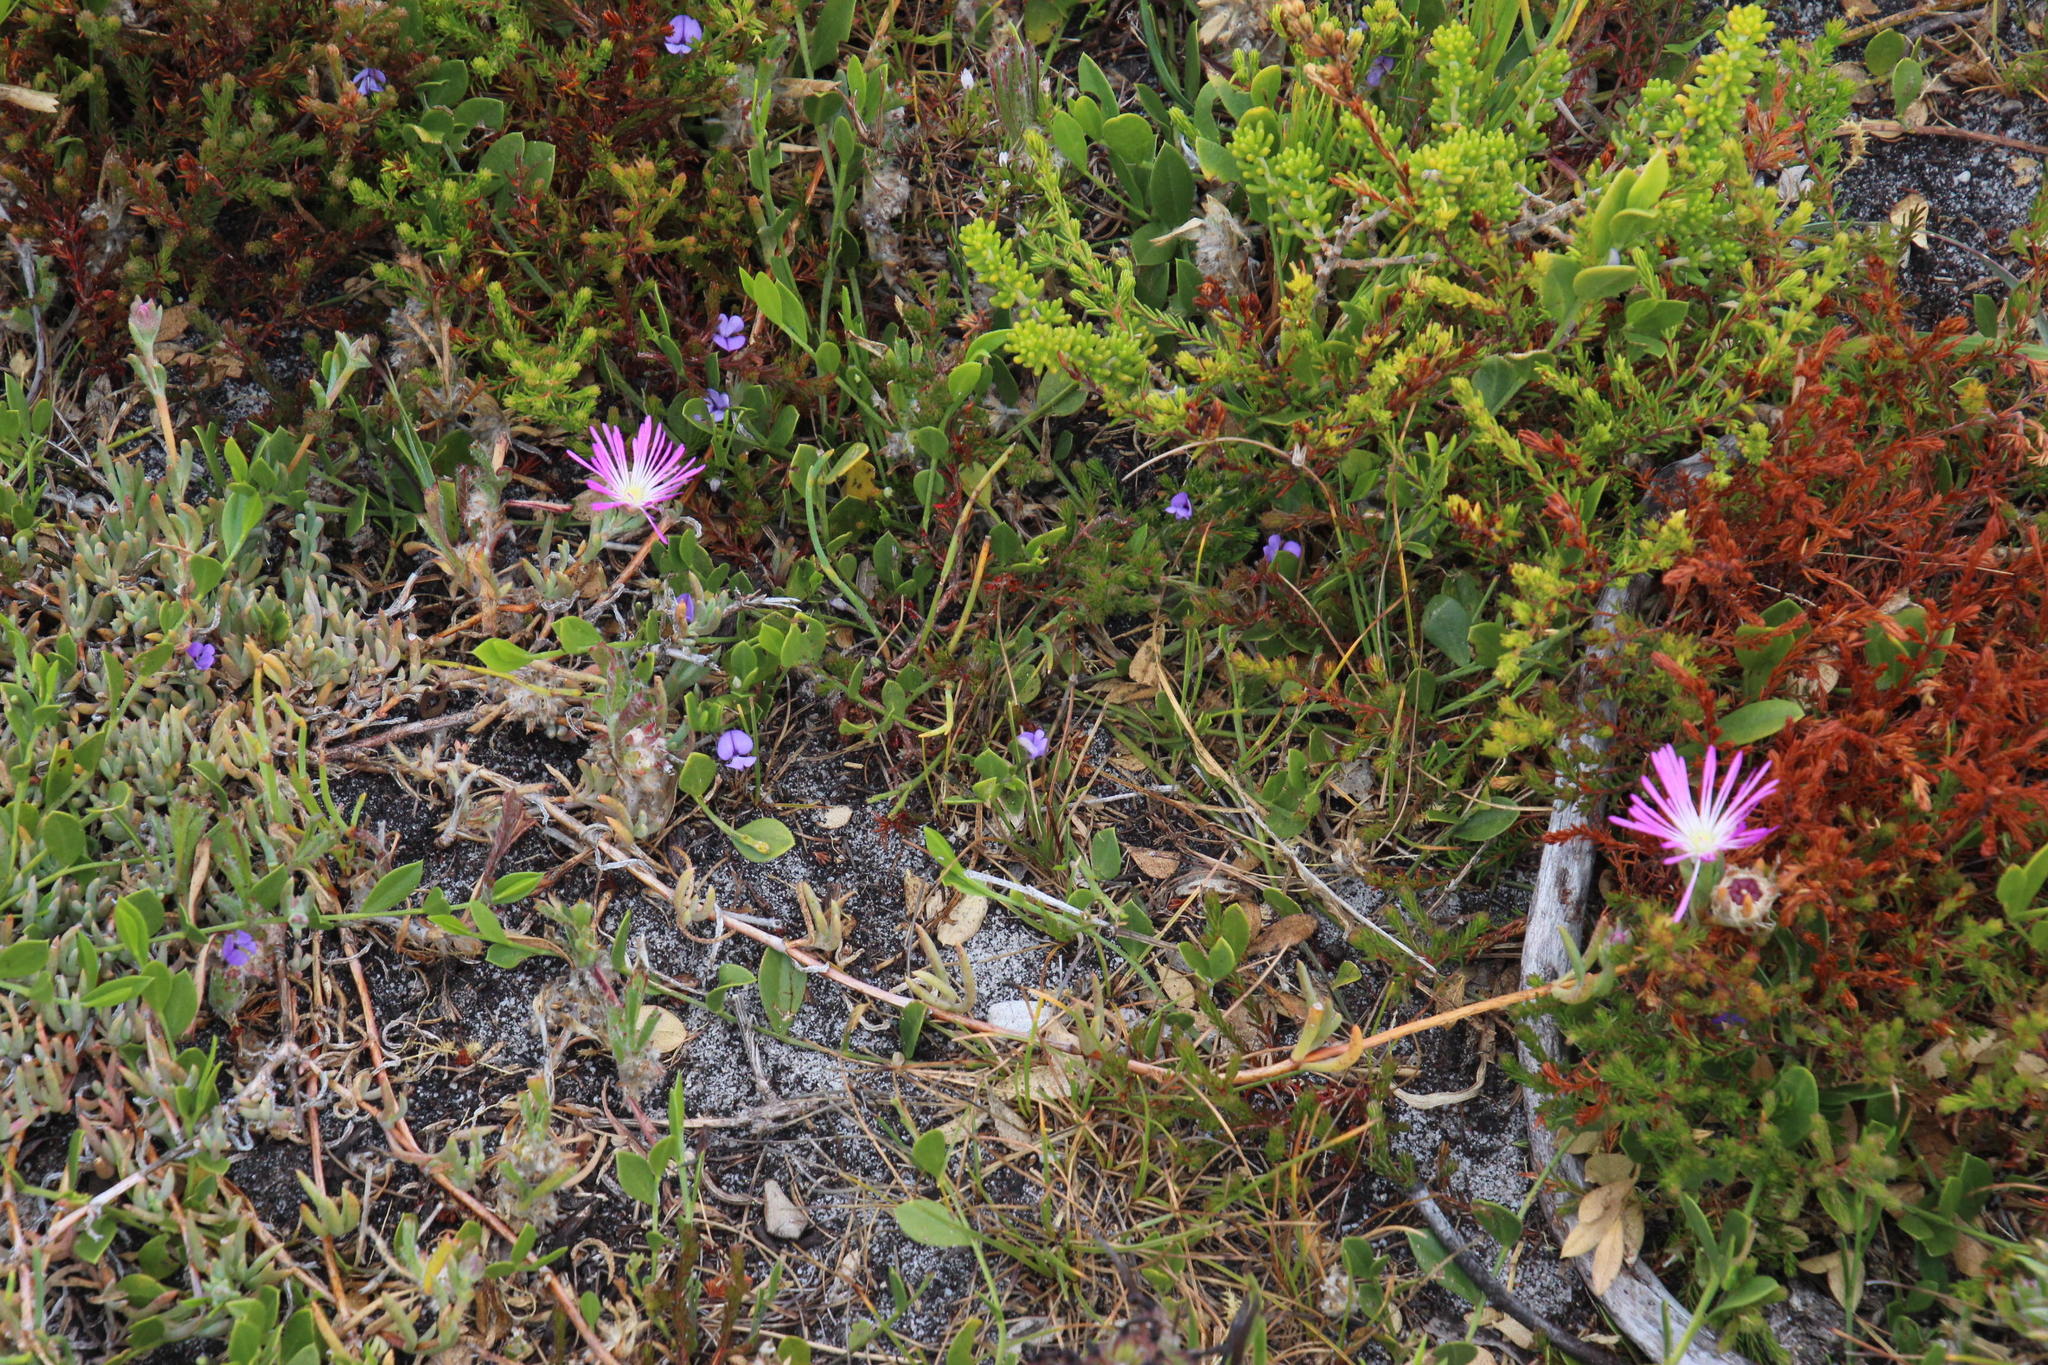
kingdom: Plantae
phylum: Tracheophyta
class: Magnoliopsida
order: Fabales
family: Fabaceae
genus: Psoralea
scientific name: Psoralea asarina
